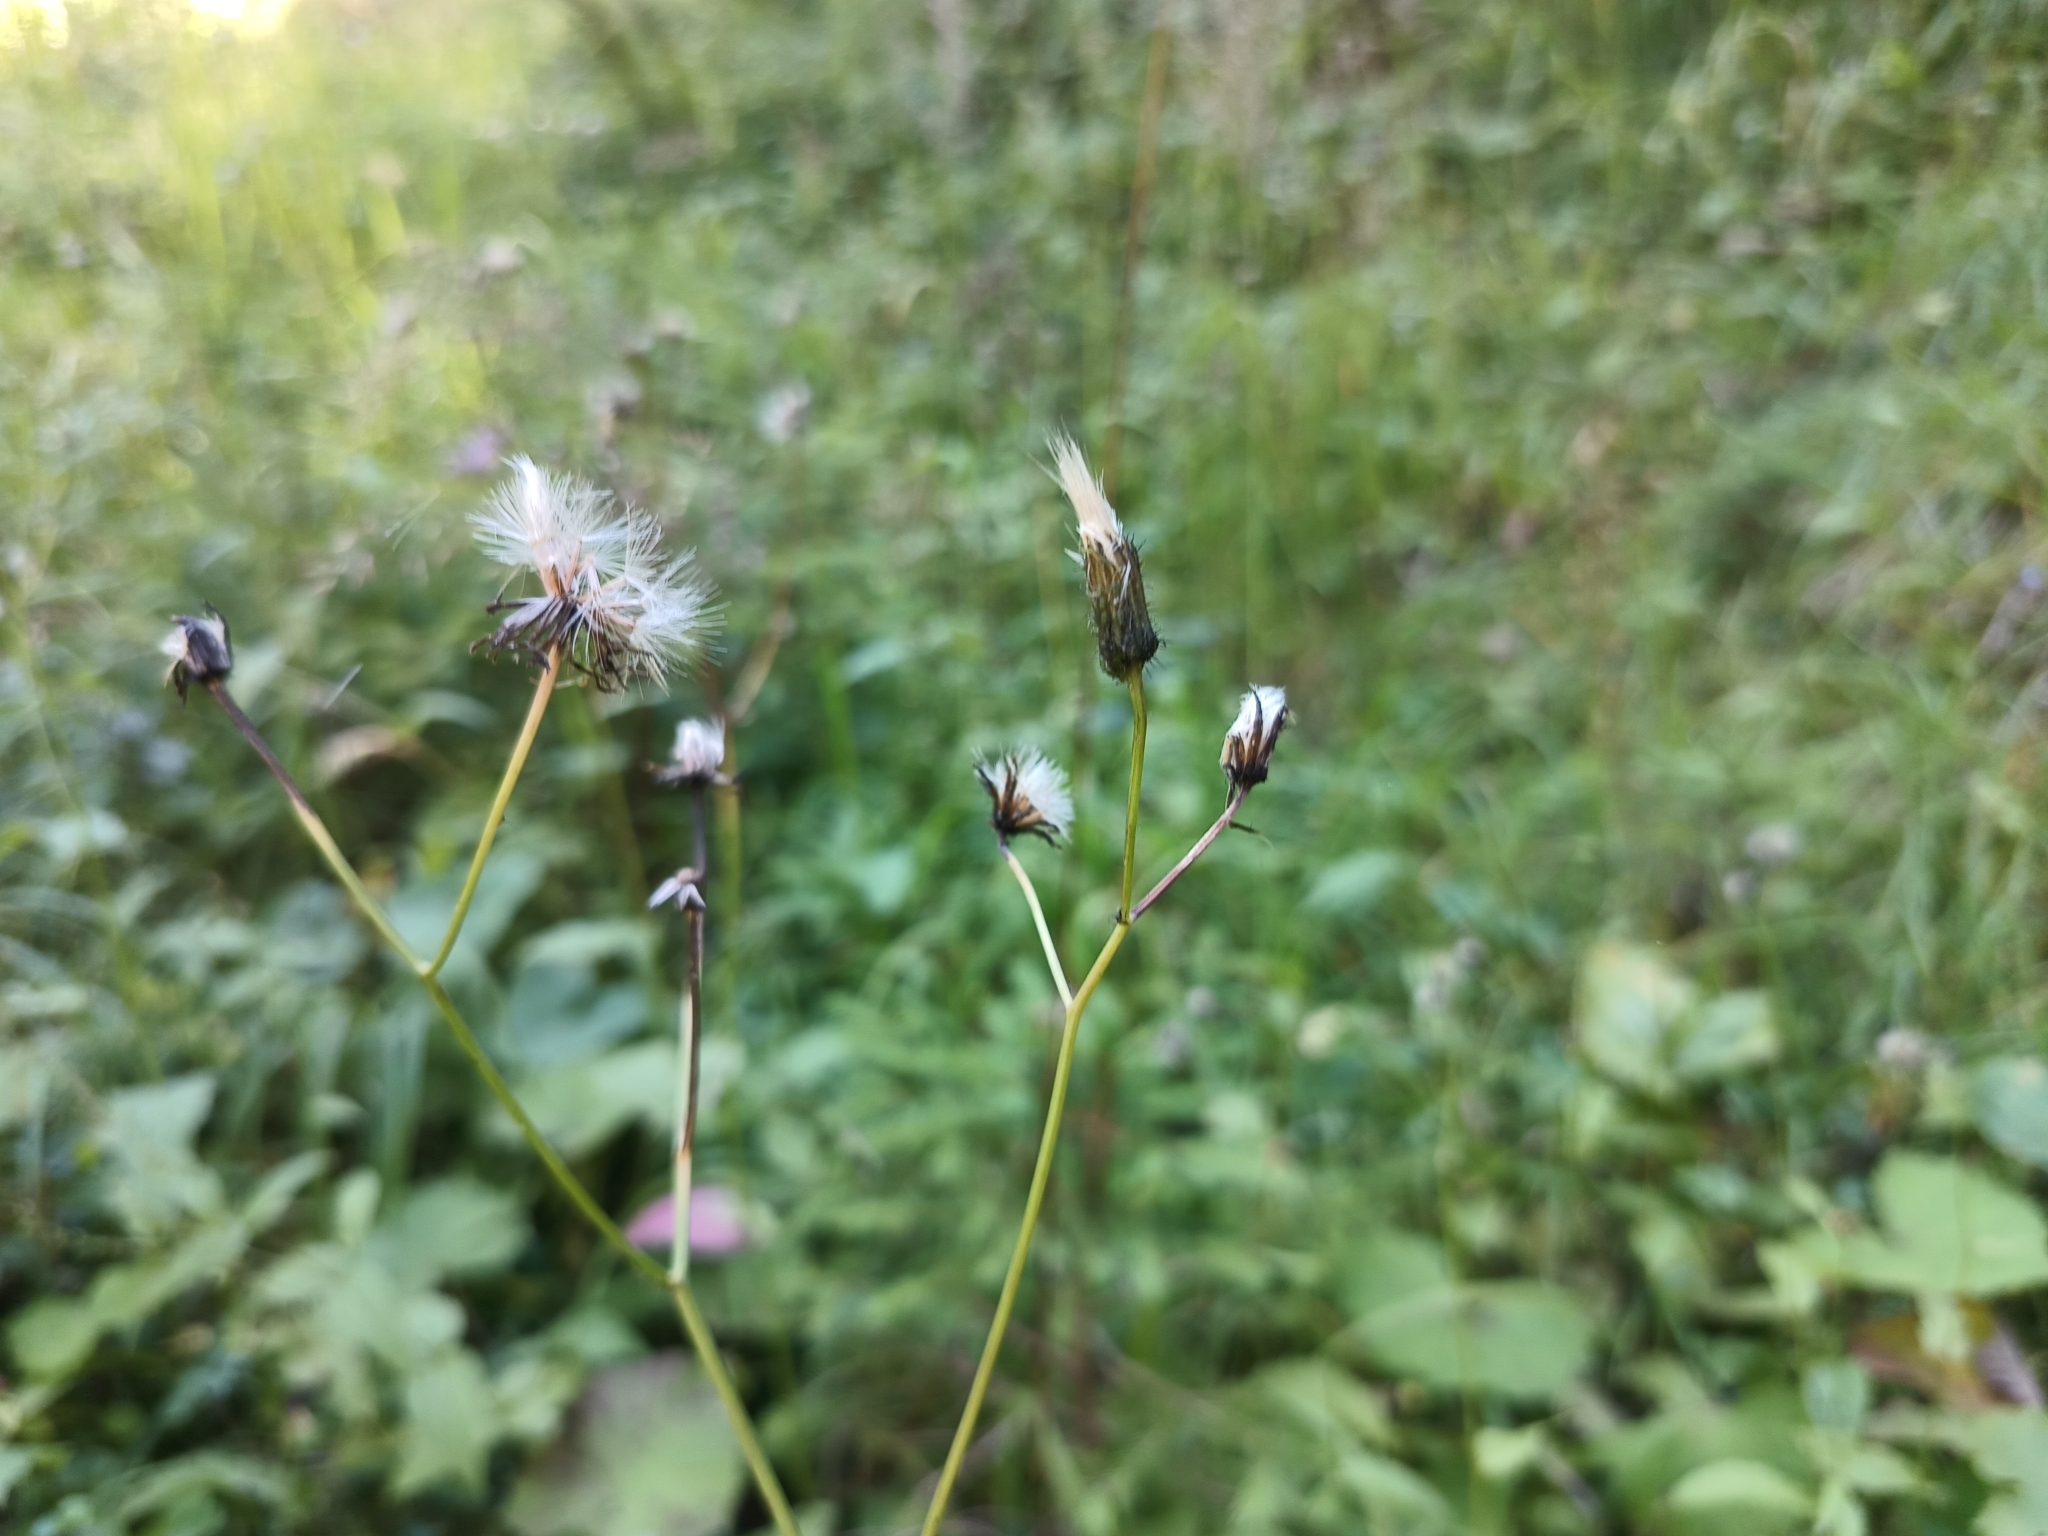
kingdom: Plantae
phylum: Tracheophyta
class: Magnoliopsida
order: Asterales
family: Asteraceae
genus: Crepis
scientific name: Crepis paludosa
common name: Marsh hawk's-beard
